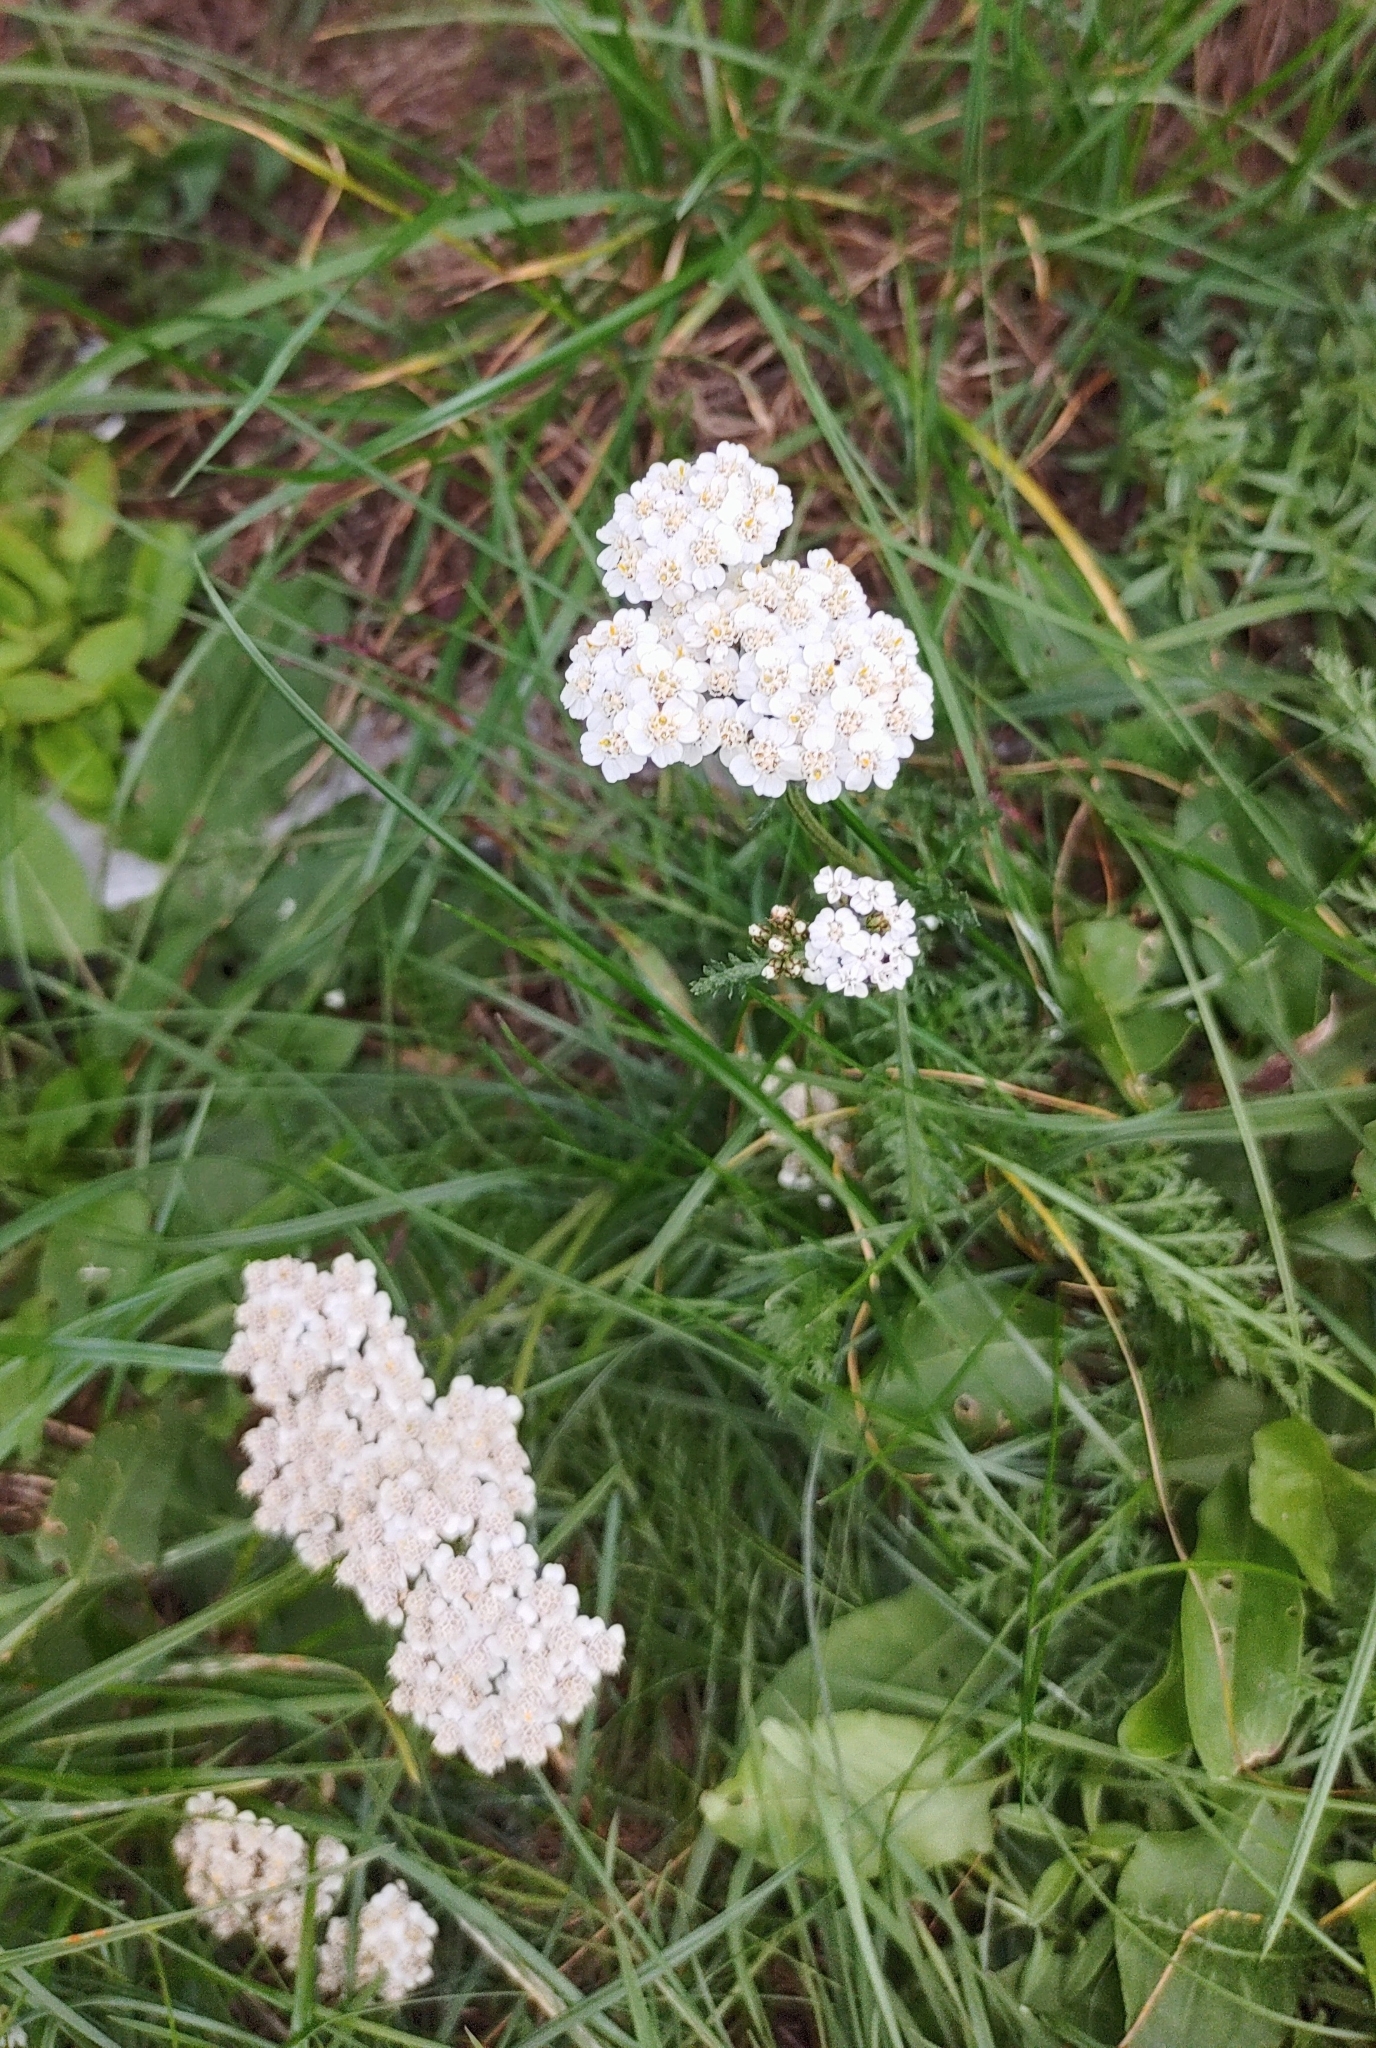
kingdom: Plantae
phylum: Tracheophyta
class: Magnoliopsida
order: Asterales
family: Asteraceae
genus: Achillea
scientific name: Achillea millefolium
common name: Yarrow
